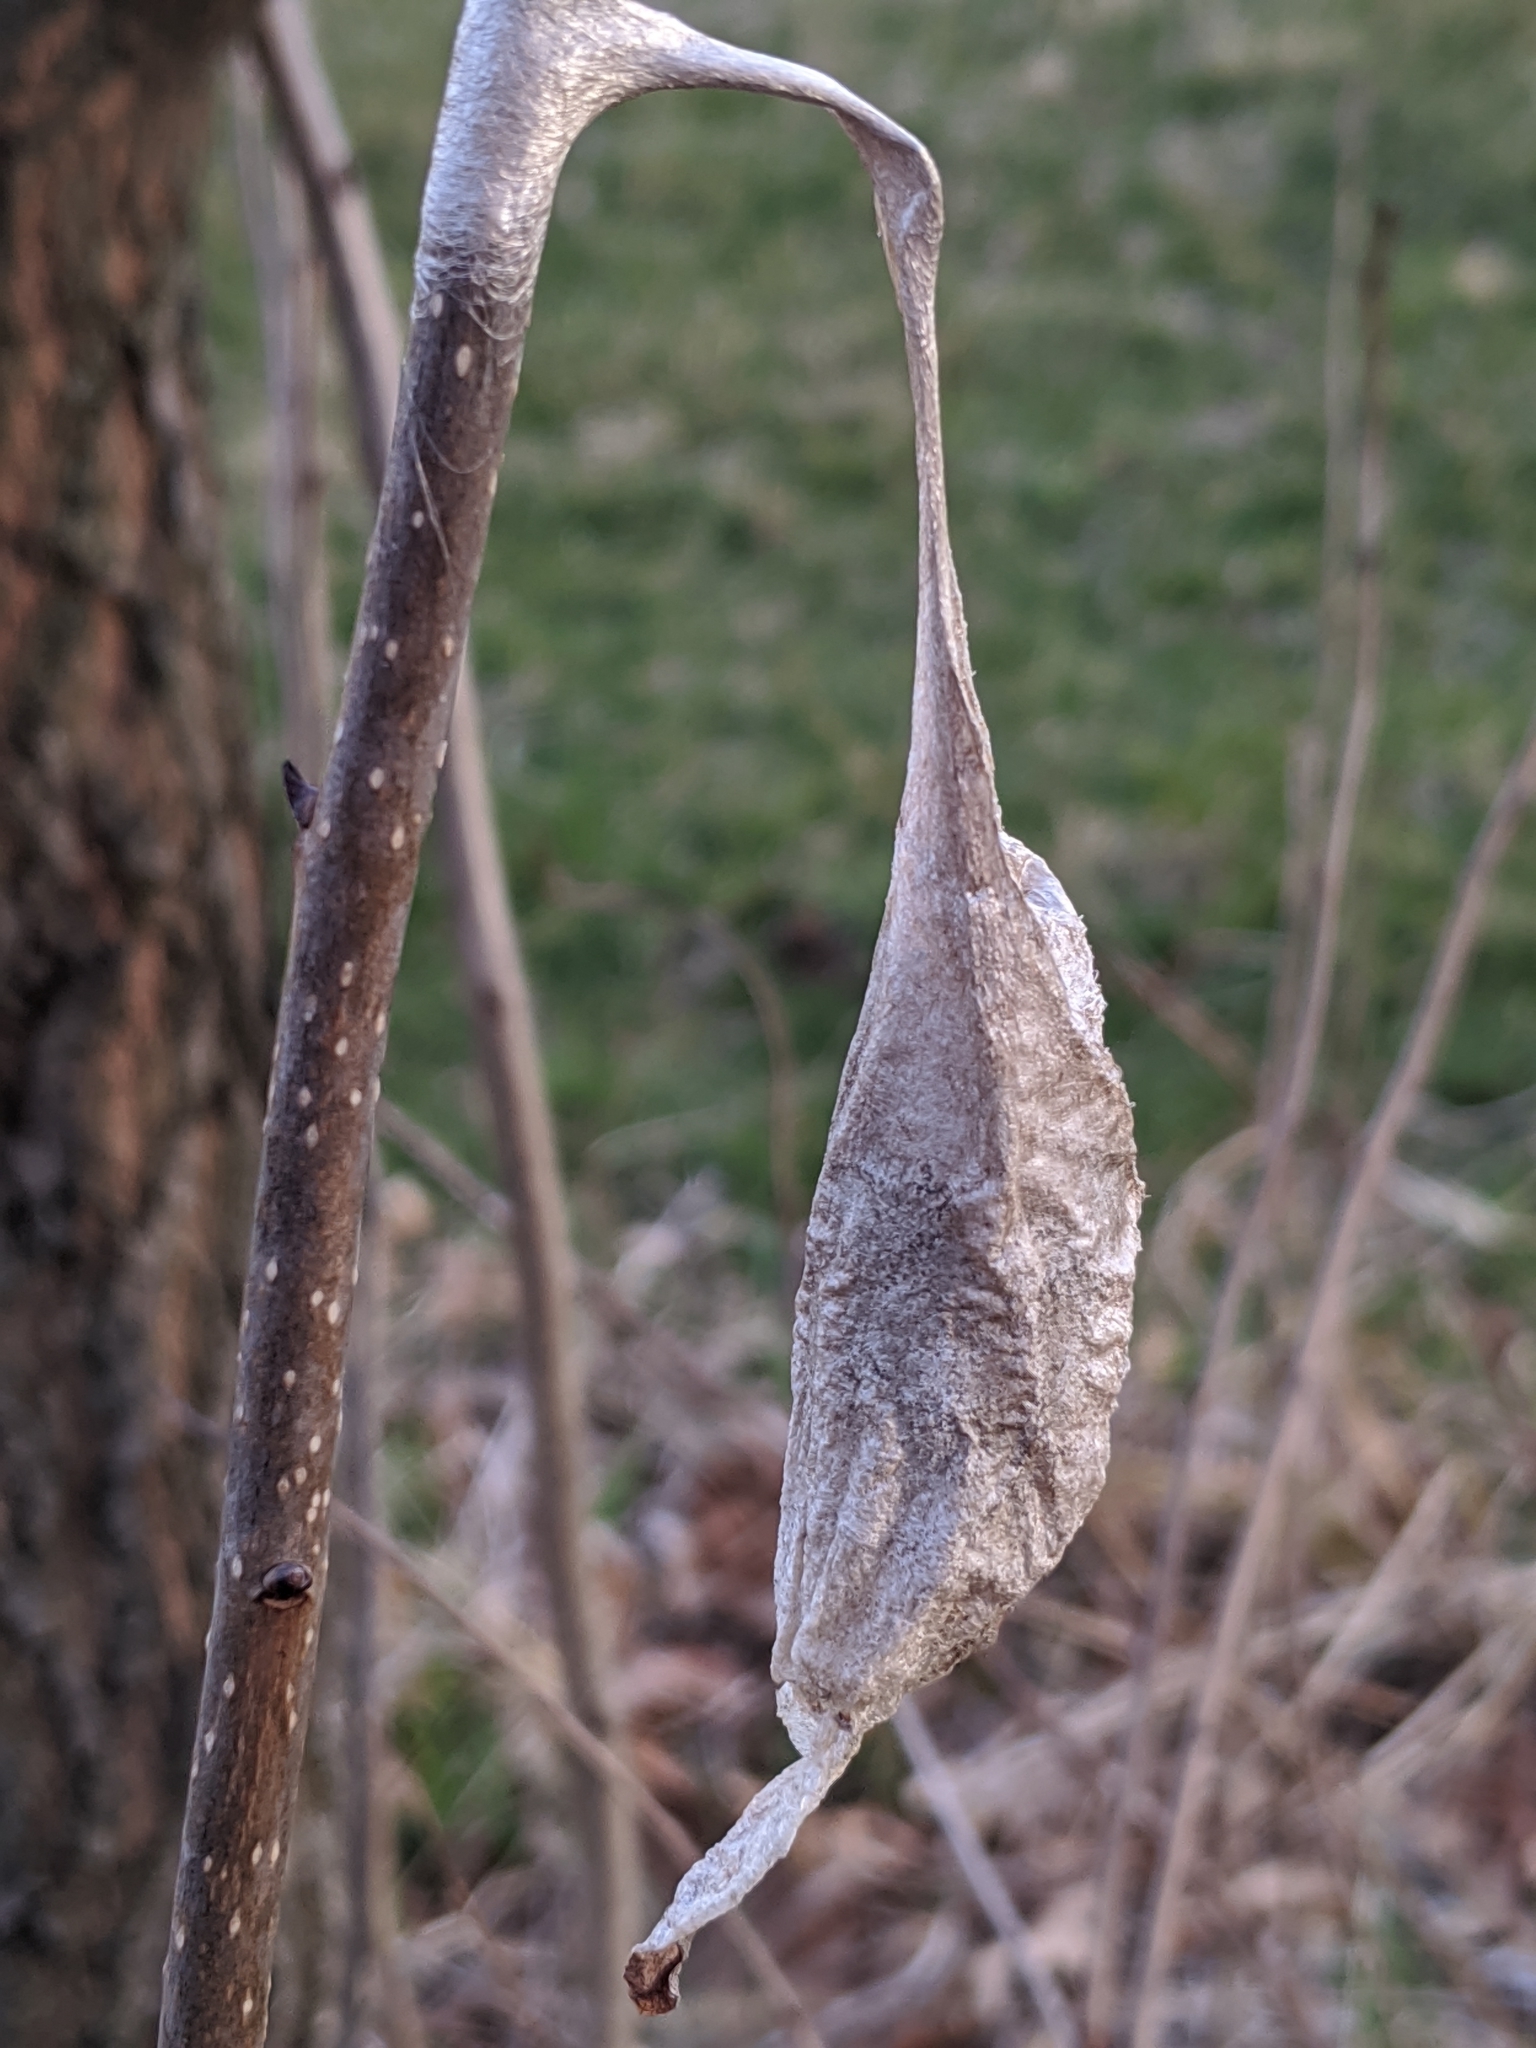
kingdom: Animalia
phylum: Arthropoda
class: Insecta
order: Lepidoptera
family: Saturniidae
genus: Callosamia
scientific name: Callosamia promethea
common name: Promethea silkmoth
